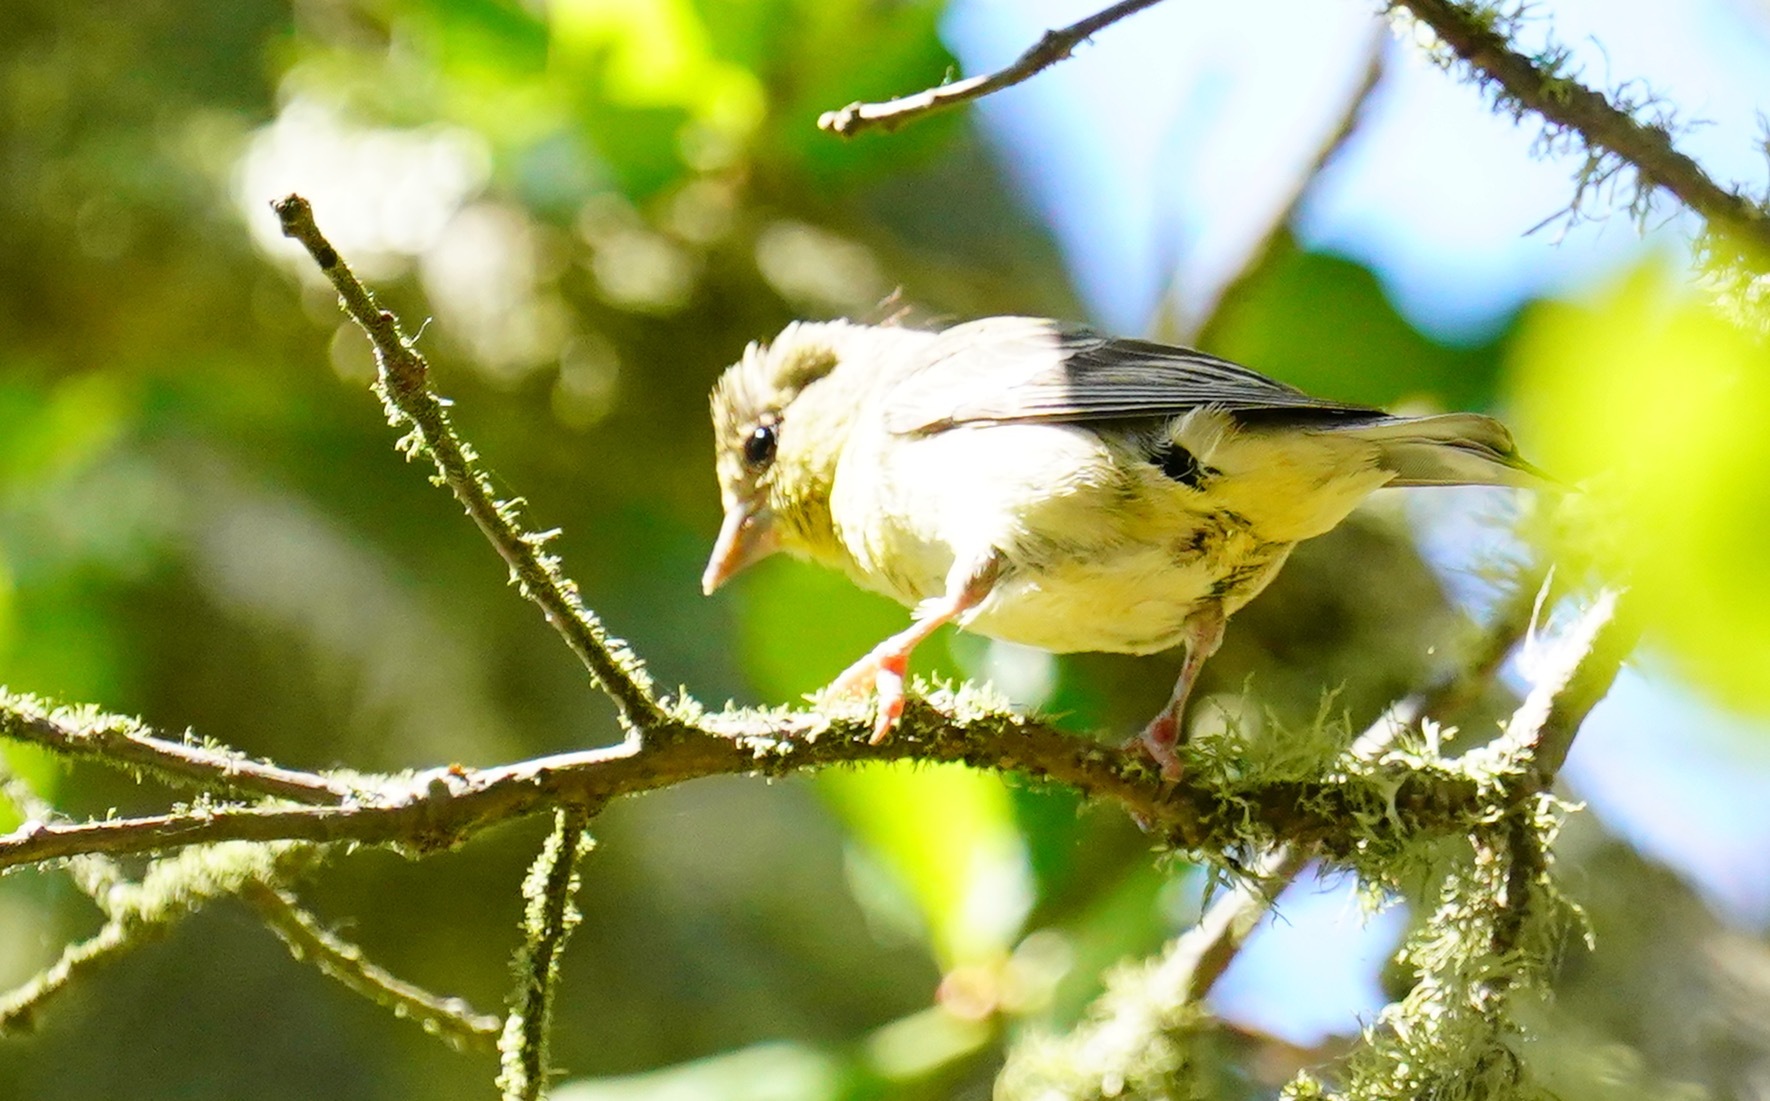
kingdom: Animalia
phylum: Chordata
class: Aves
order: Passeriformes
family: Fringillidae
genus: Spinus
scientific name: Spinus psaltria
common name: Lesser goldfinch
